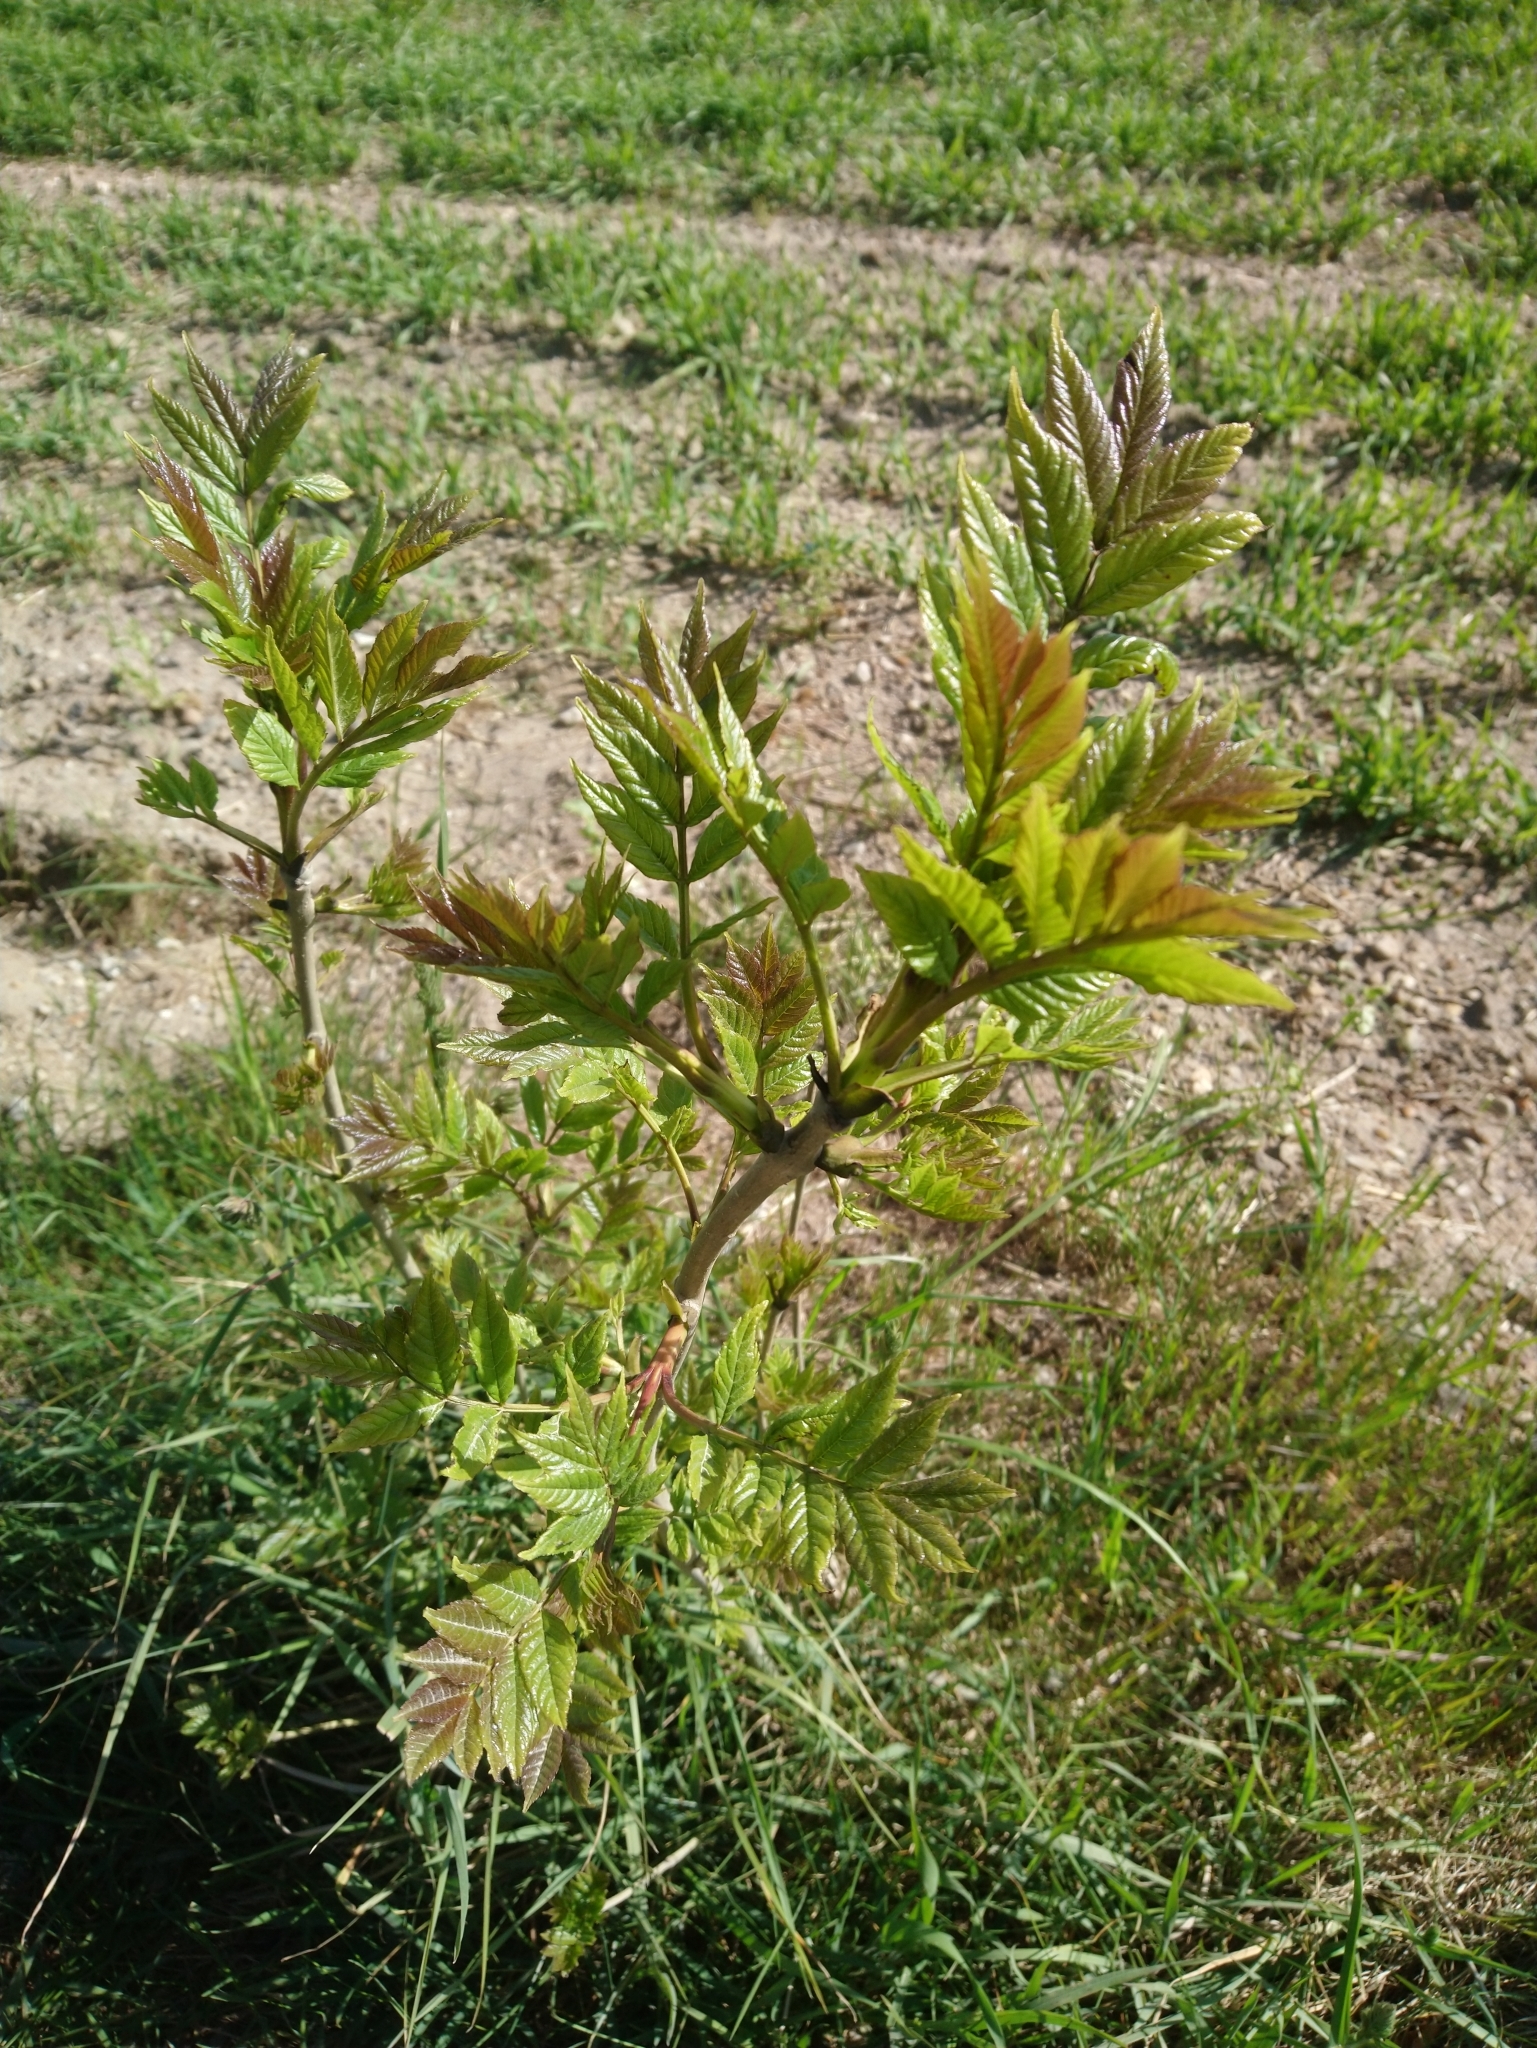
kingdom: Plantae
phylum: Tracheophyta
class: Magnoliopsida
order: Lamiales
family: Oleaceae
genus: Fraxinus
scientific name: Fraxinus excelsior
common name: European ash
